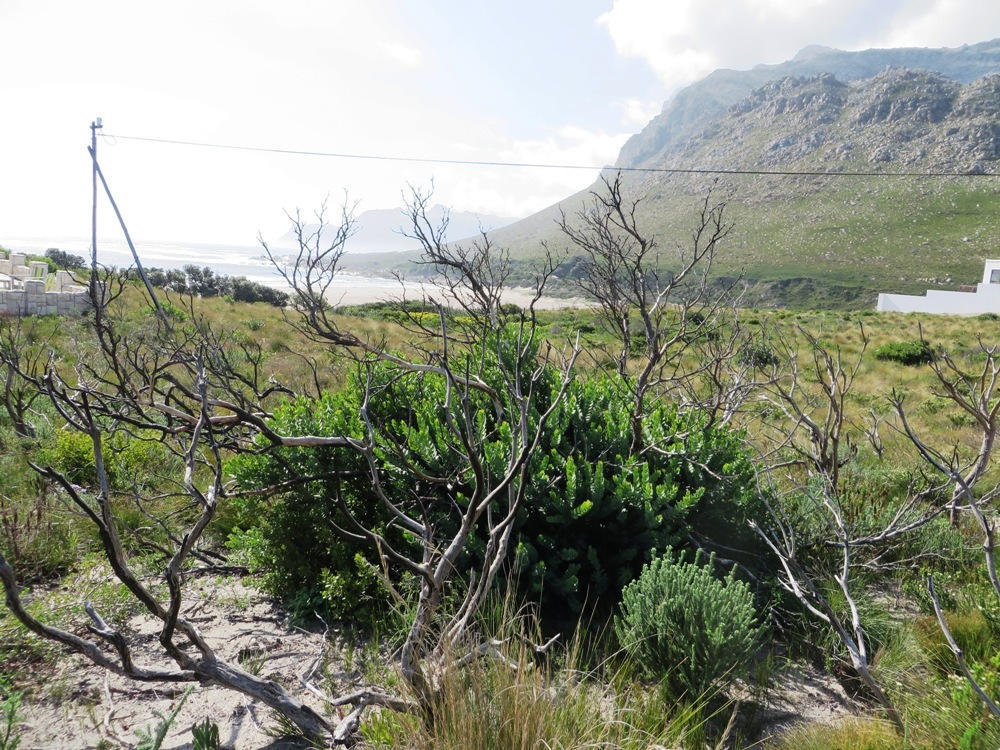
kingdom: Plantae
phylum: Tracheophyta
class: Magnoliopsida
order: Santalales
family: Santalaceae
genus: Osyris
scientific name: Osyris compressa
